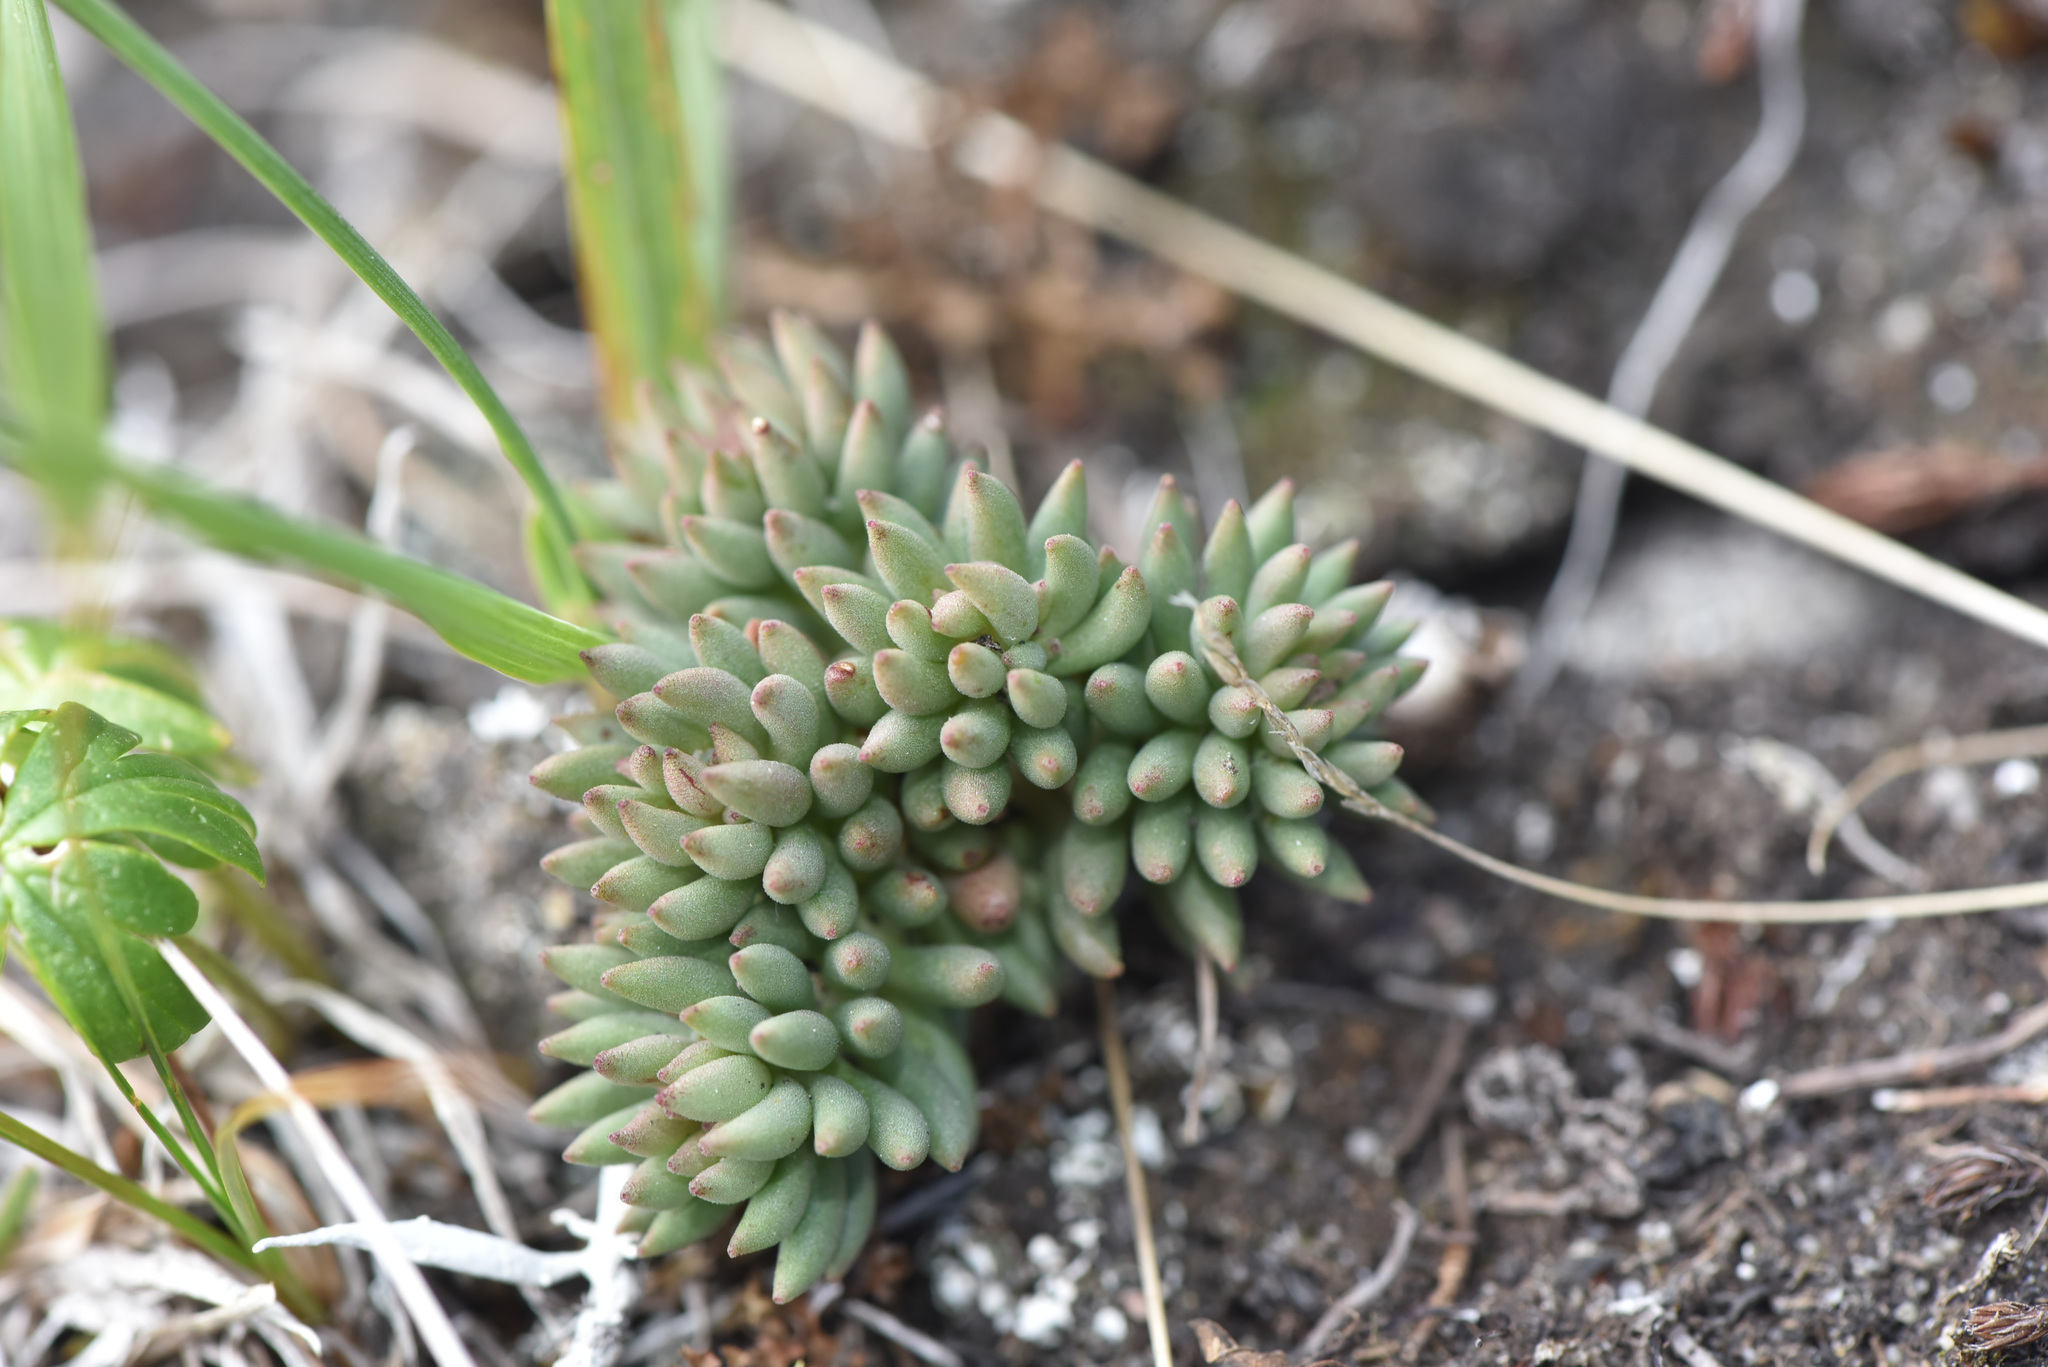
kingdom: Plantae
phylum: Tracheophyta
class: Magnoliopsida
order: Saxifragales
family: Crassulaceae
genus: Sedum
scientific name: Sedum lanceolatum
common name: Common stonecrop
